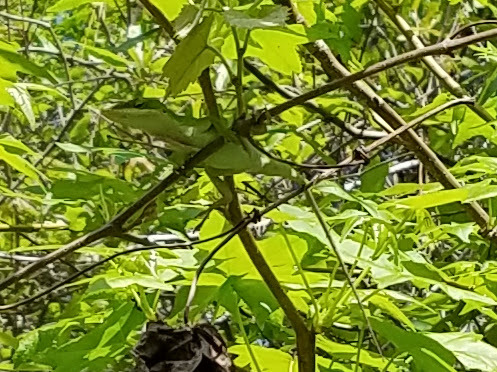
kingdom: Animalia
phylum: Chordata
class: Squamata
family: Dactyloidae
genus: Anolis
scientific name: Anolis carolinensis
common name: Green anole
